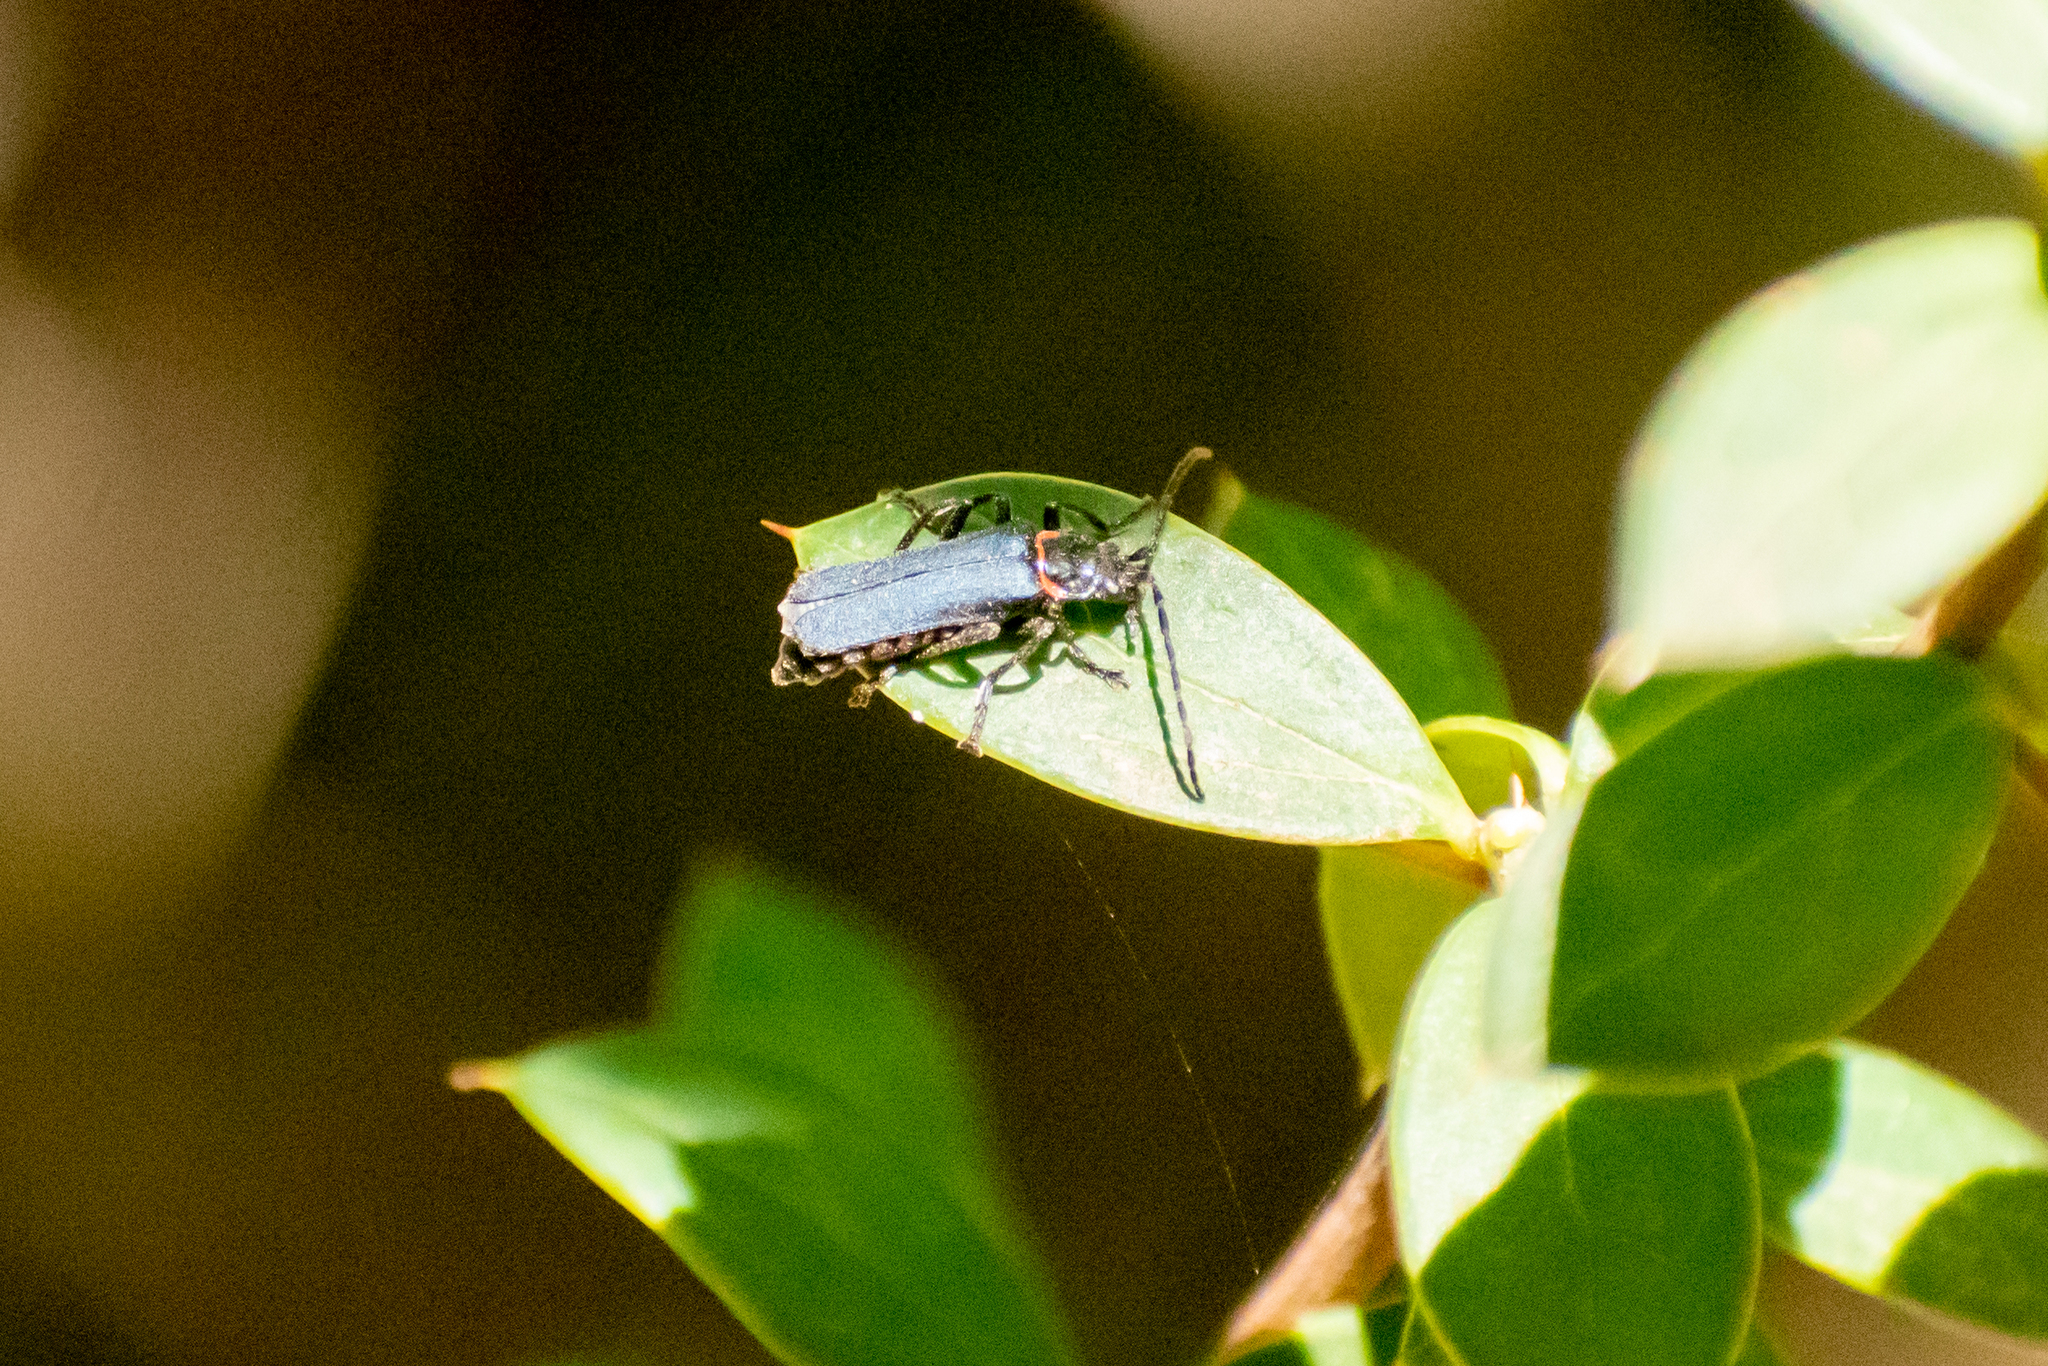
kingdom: Animalia
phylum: Arthropoda
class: Insecta
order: Coleoptera
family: Cantharidae
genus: Chauliognathus
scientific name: Chauliognathus
